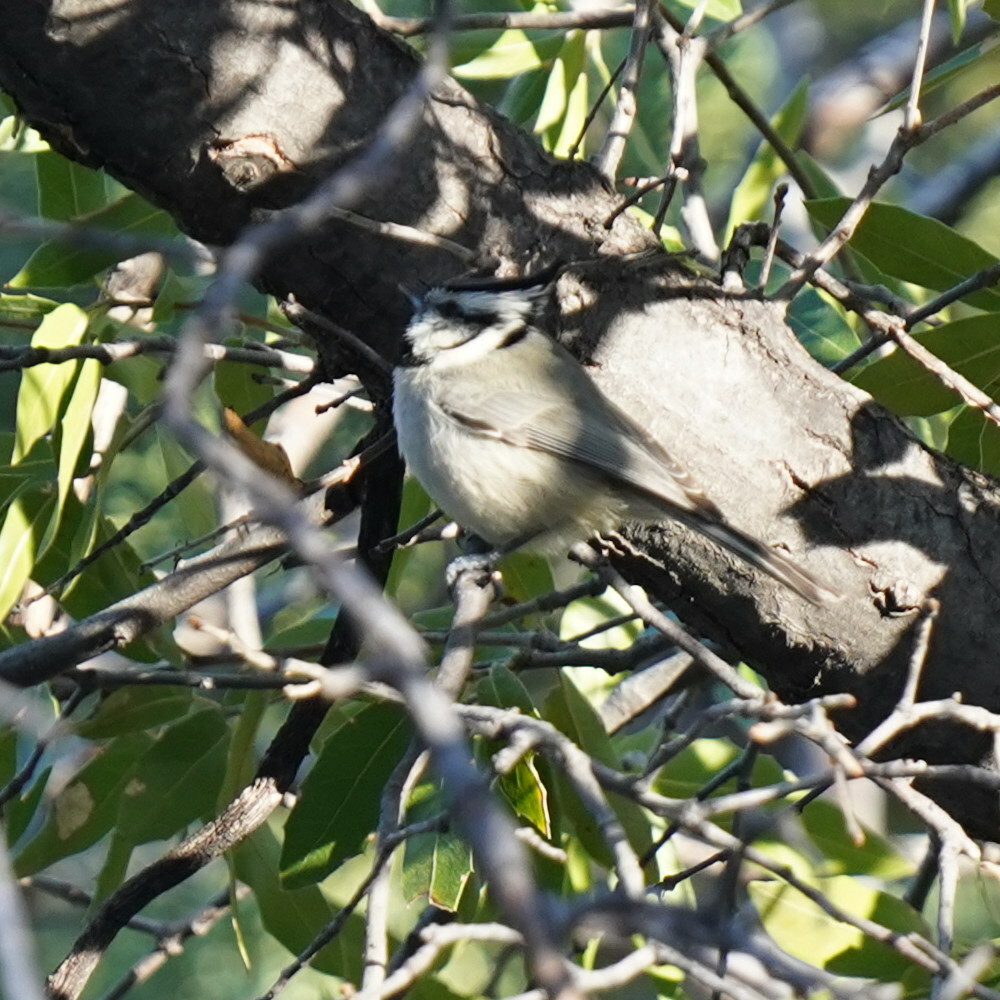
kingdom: Animalia
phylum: Chordata
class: Aves
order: Passeriformes
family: Paridae
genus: Baeolophus
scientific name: Baeolophus wollweberi
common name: Bridled titmouse
